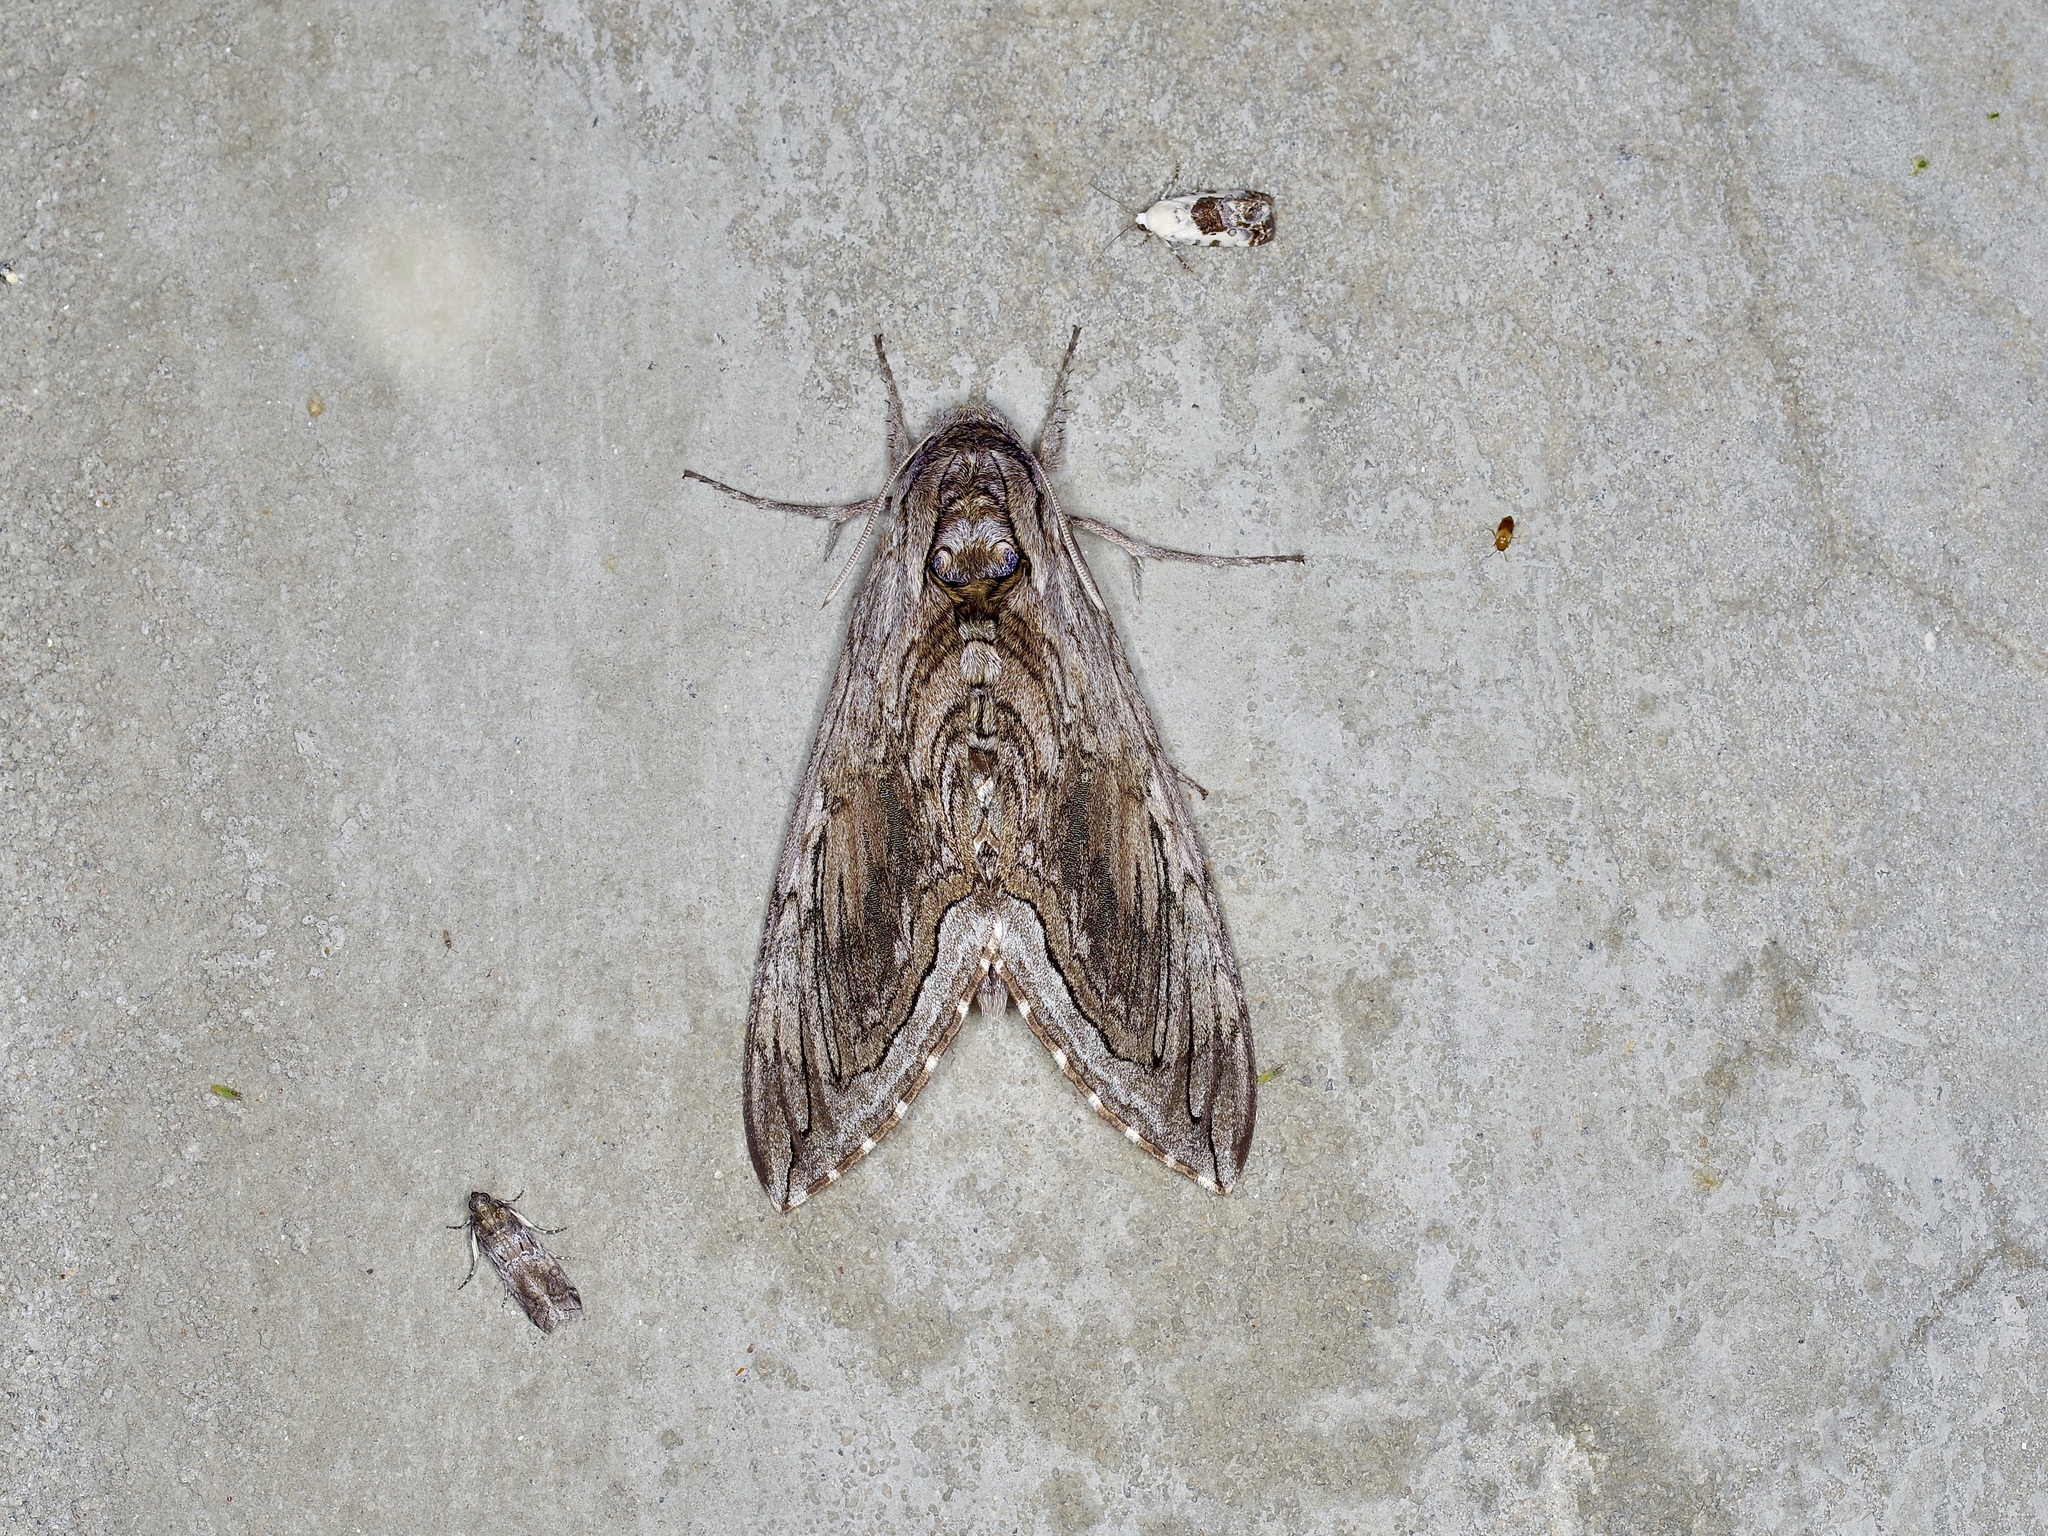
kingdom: Animalia
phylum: Arthropoda
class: Insecta
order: Lepidoptera
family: Sphingidae
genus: Manduca
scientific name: Manduca quinquemaculatus
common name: Five-spotted hawk-moth
